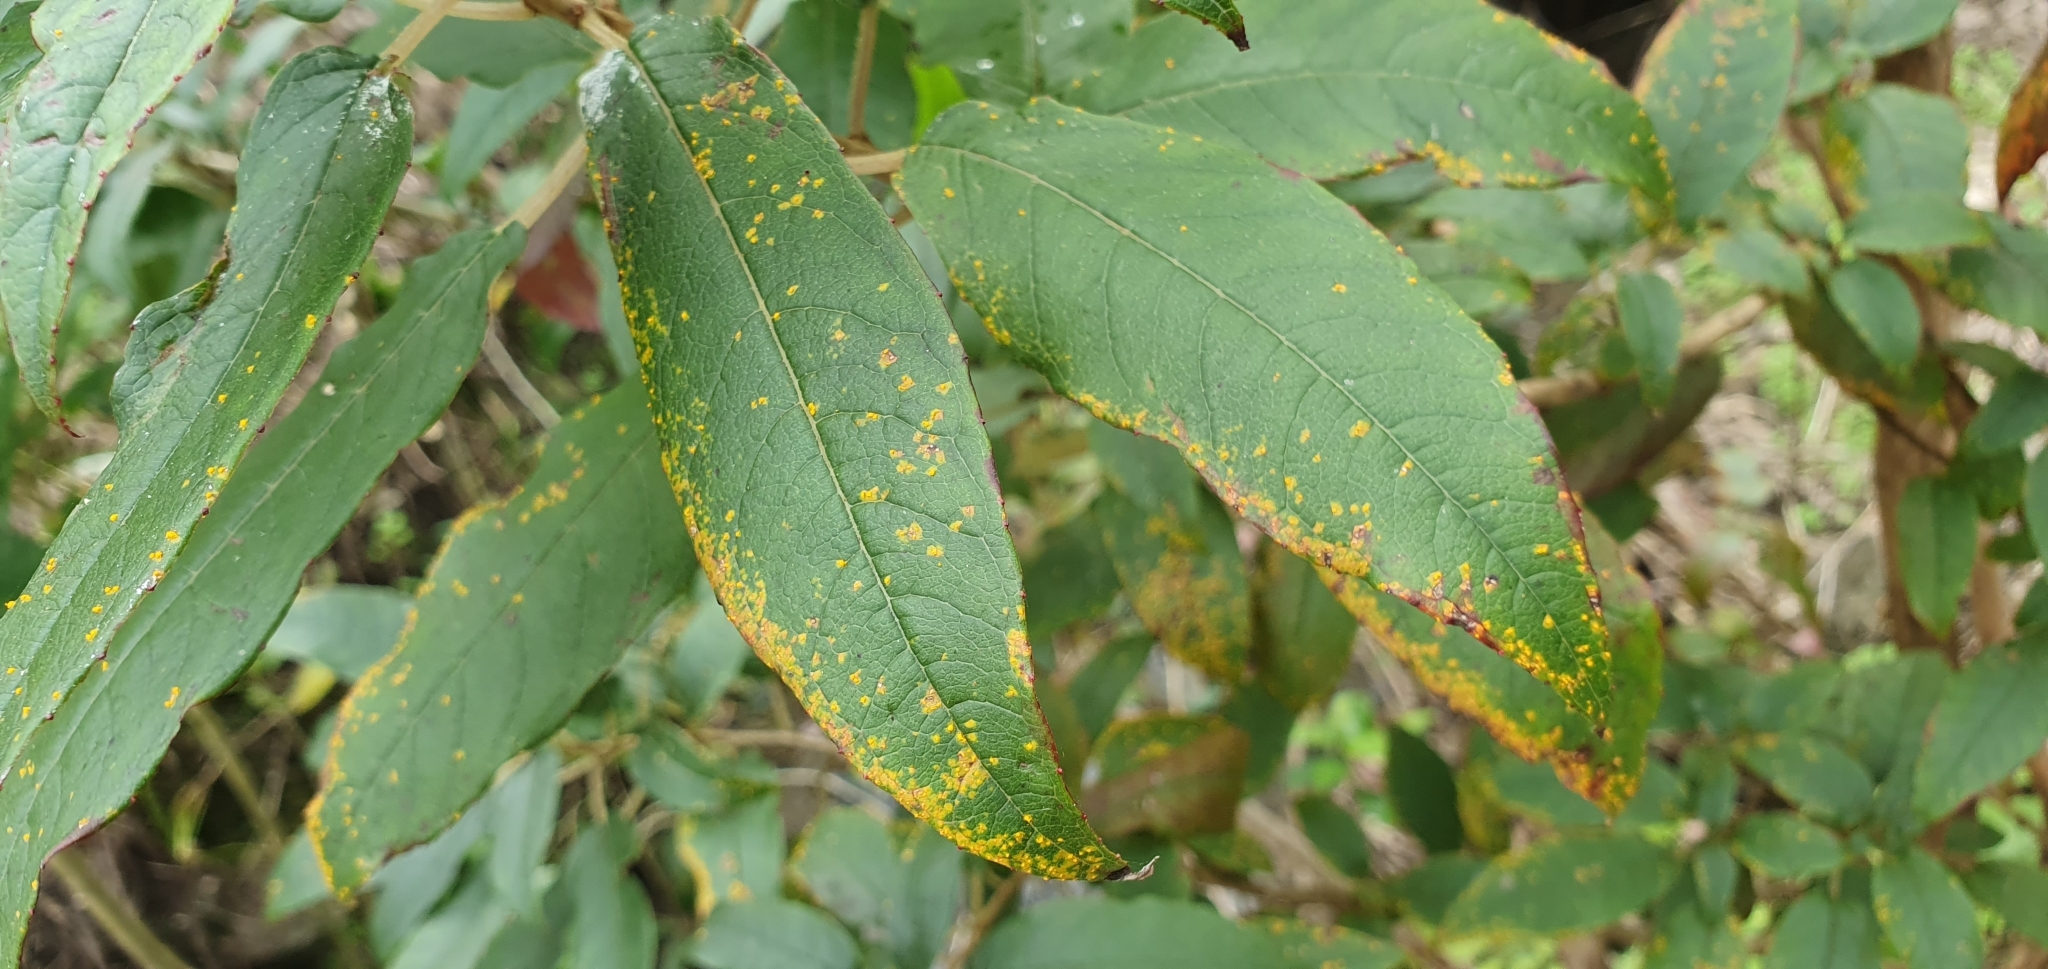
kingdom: Fungi
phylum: Basidiomycota
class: Pucciniomycetes
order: Pucciniales
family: Mikronegeriaceae
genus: Mikronegeria
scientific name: Mikronegeria fuchsiae
